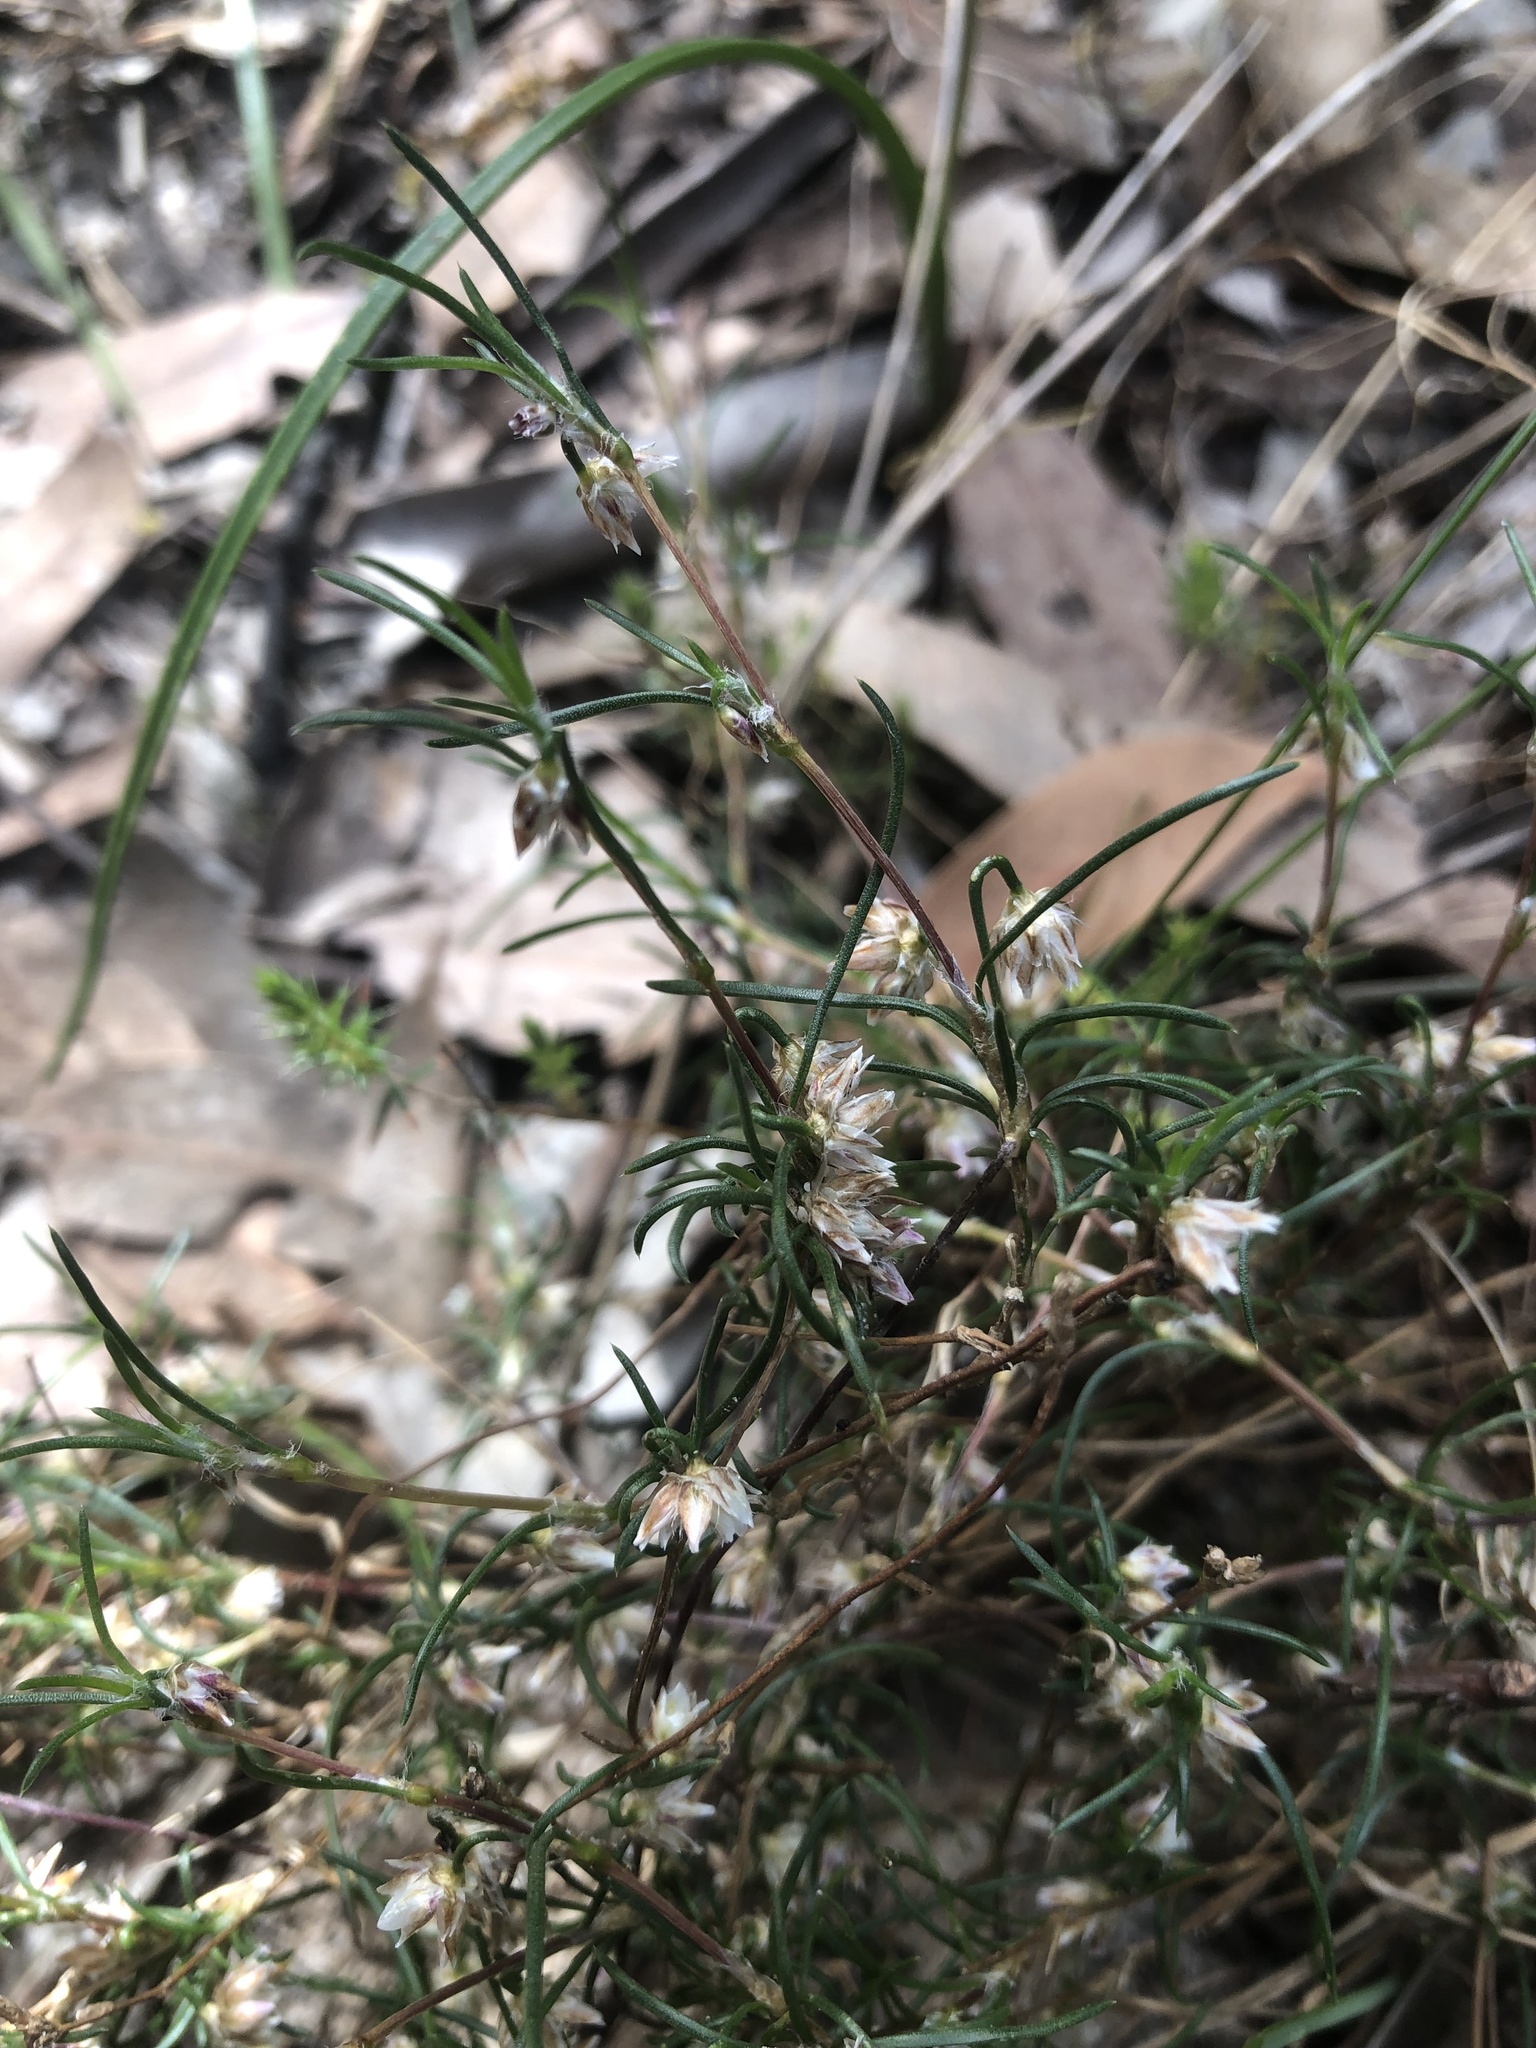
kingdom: Plantae
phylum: Tracheophyta
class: Liliopsida
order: Asparagales
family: Asparagaceae
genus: Laxmannia
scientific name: Laxmannia orientalis
